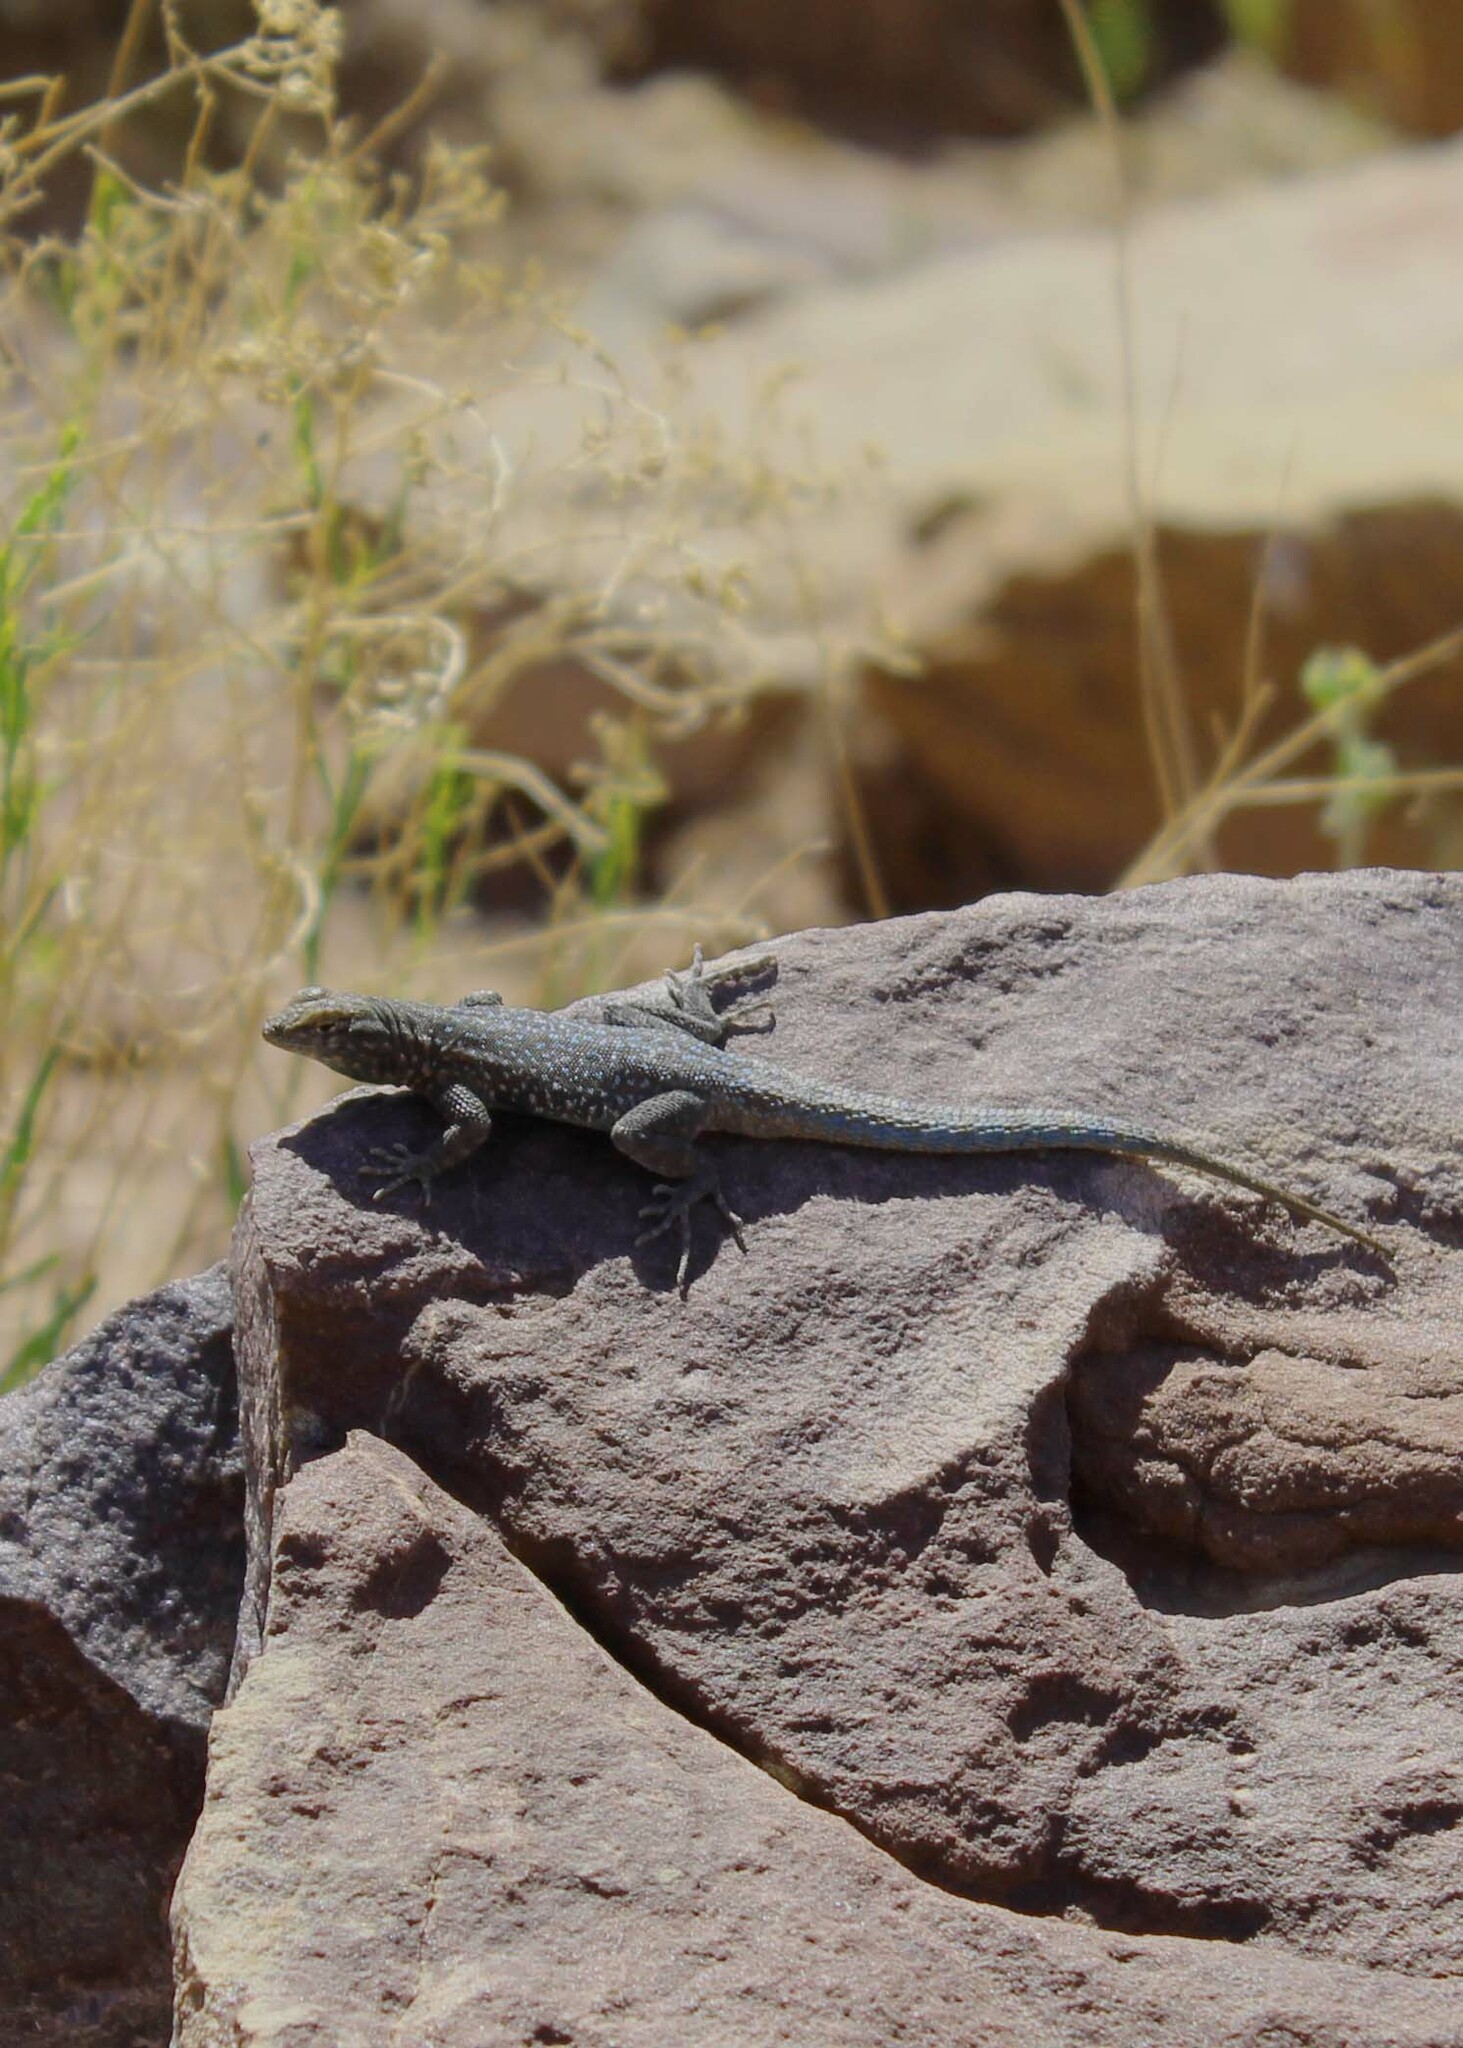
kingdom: Animalia
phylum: Chordata
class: Squamata
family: Phrynosomatidae
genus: Uta
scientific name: Uta stansburiana
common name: Side-blotched lizard
